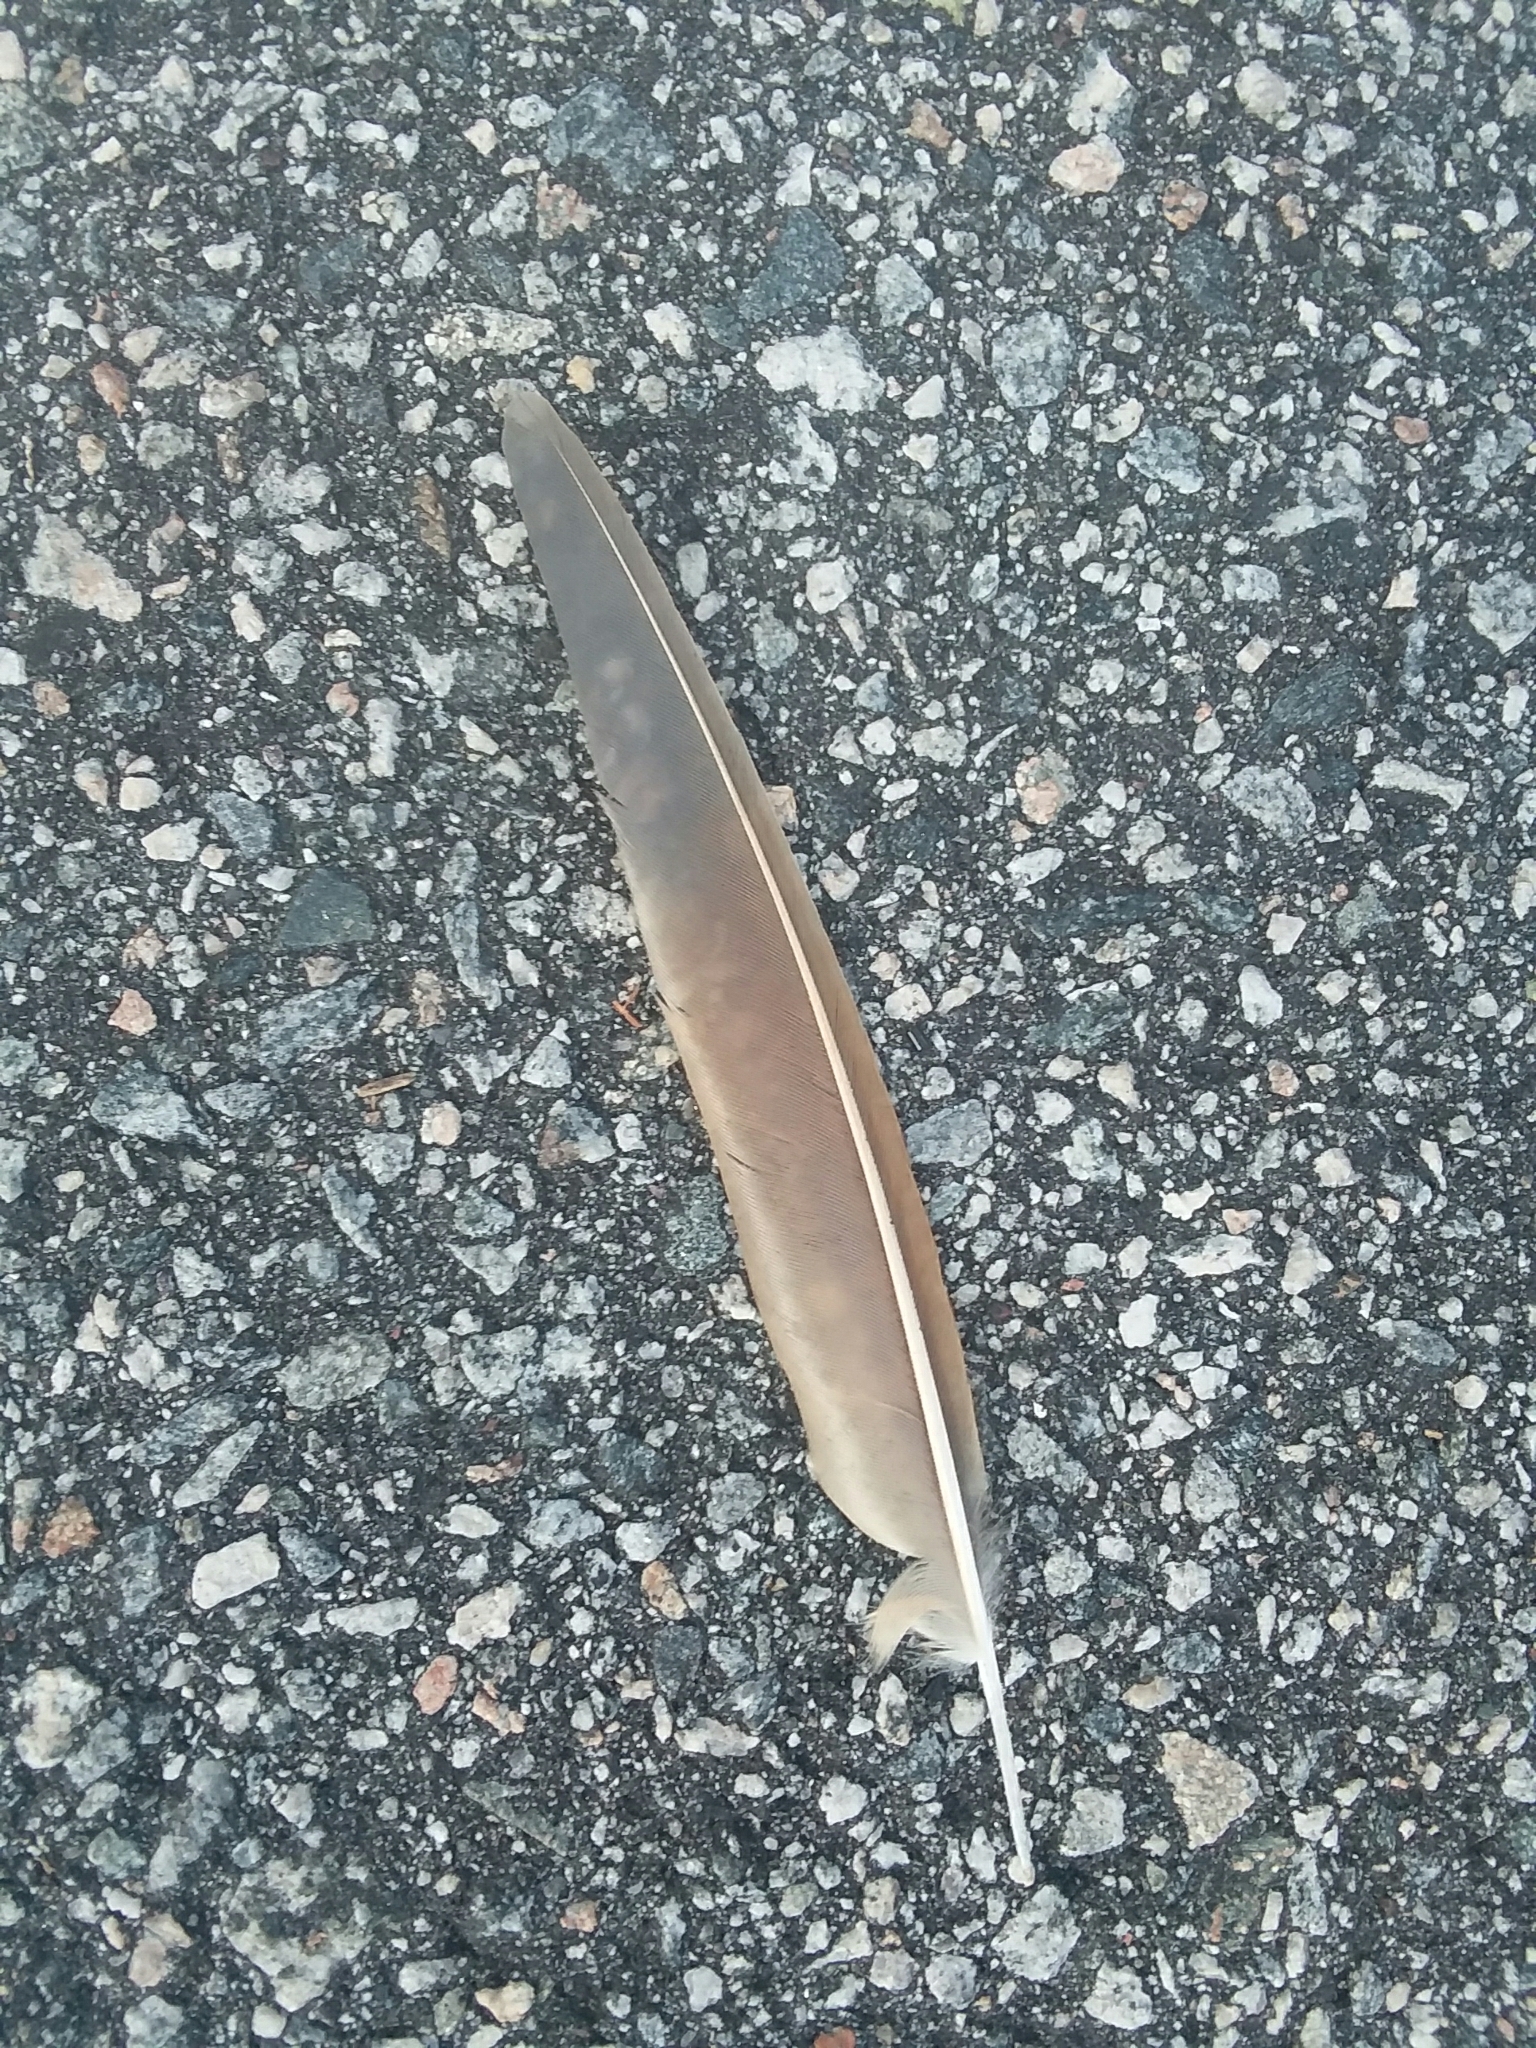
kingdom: Animalia
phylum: Chordata
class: Aves
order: Cuculiformes
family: Cuculidae
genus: Coccyzus
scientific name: Coccyzus americanus
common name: Yellow-billed cuckoo
